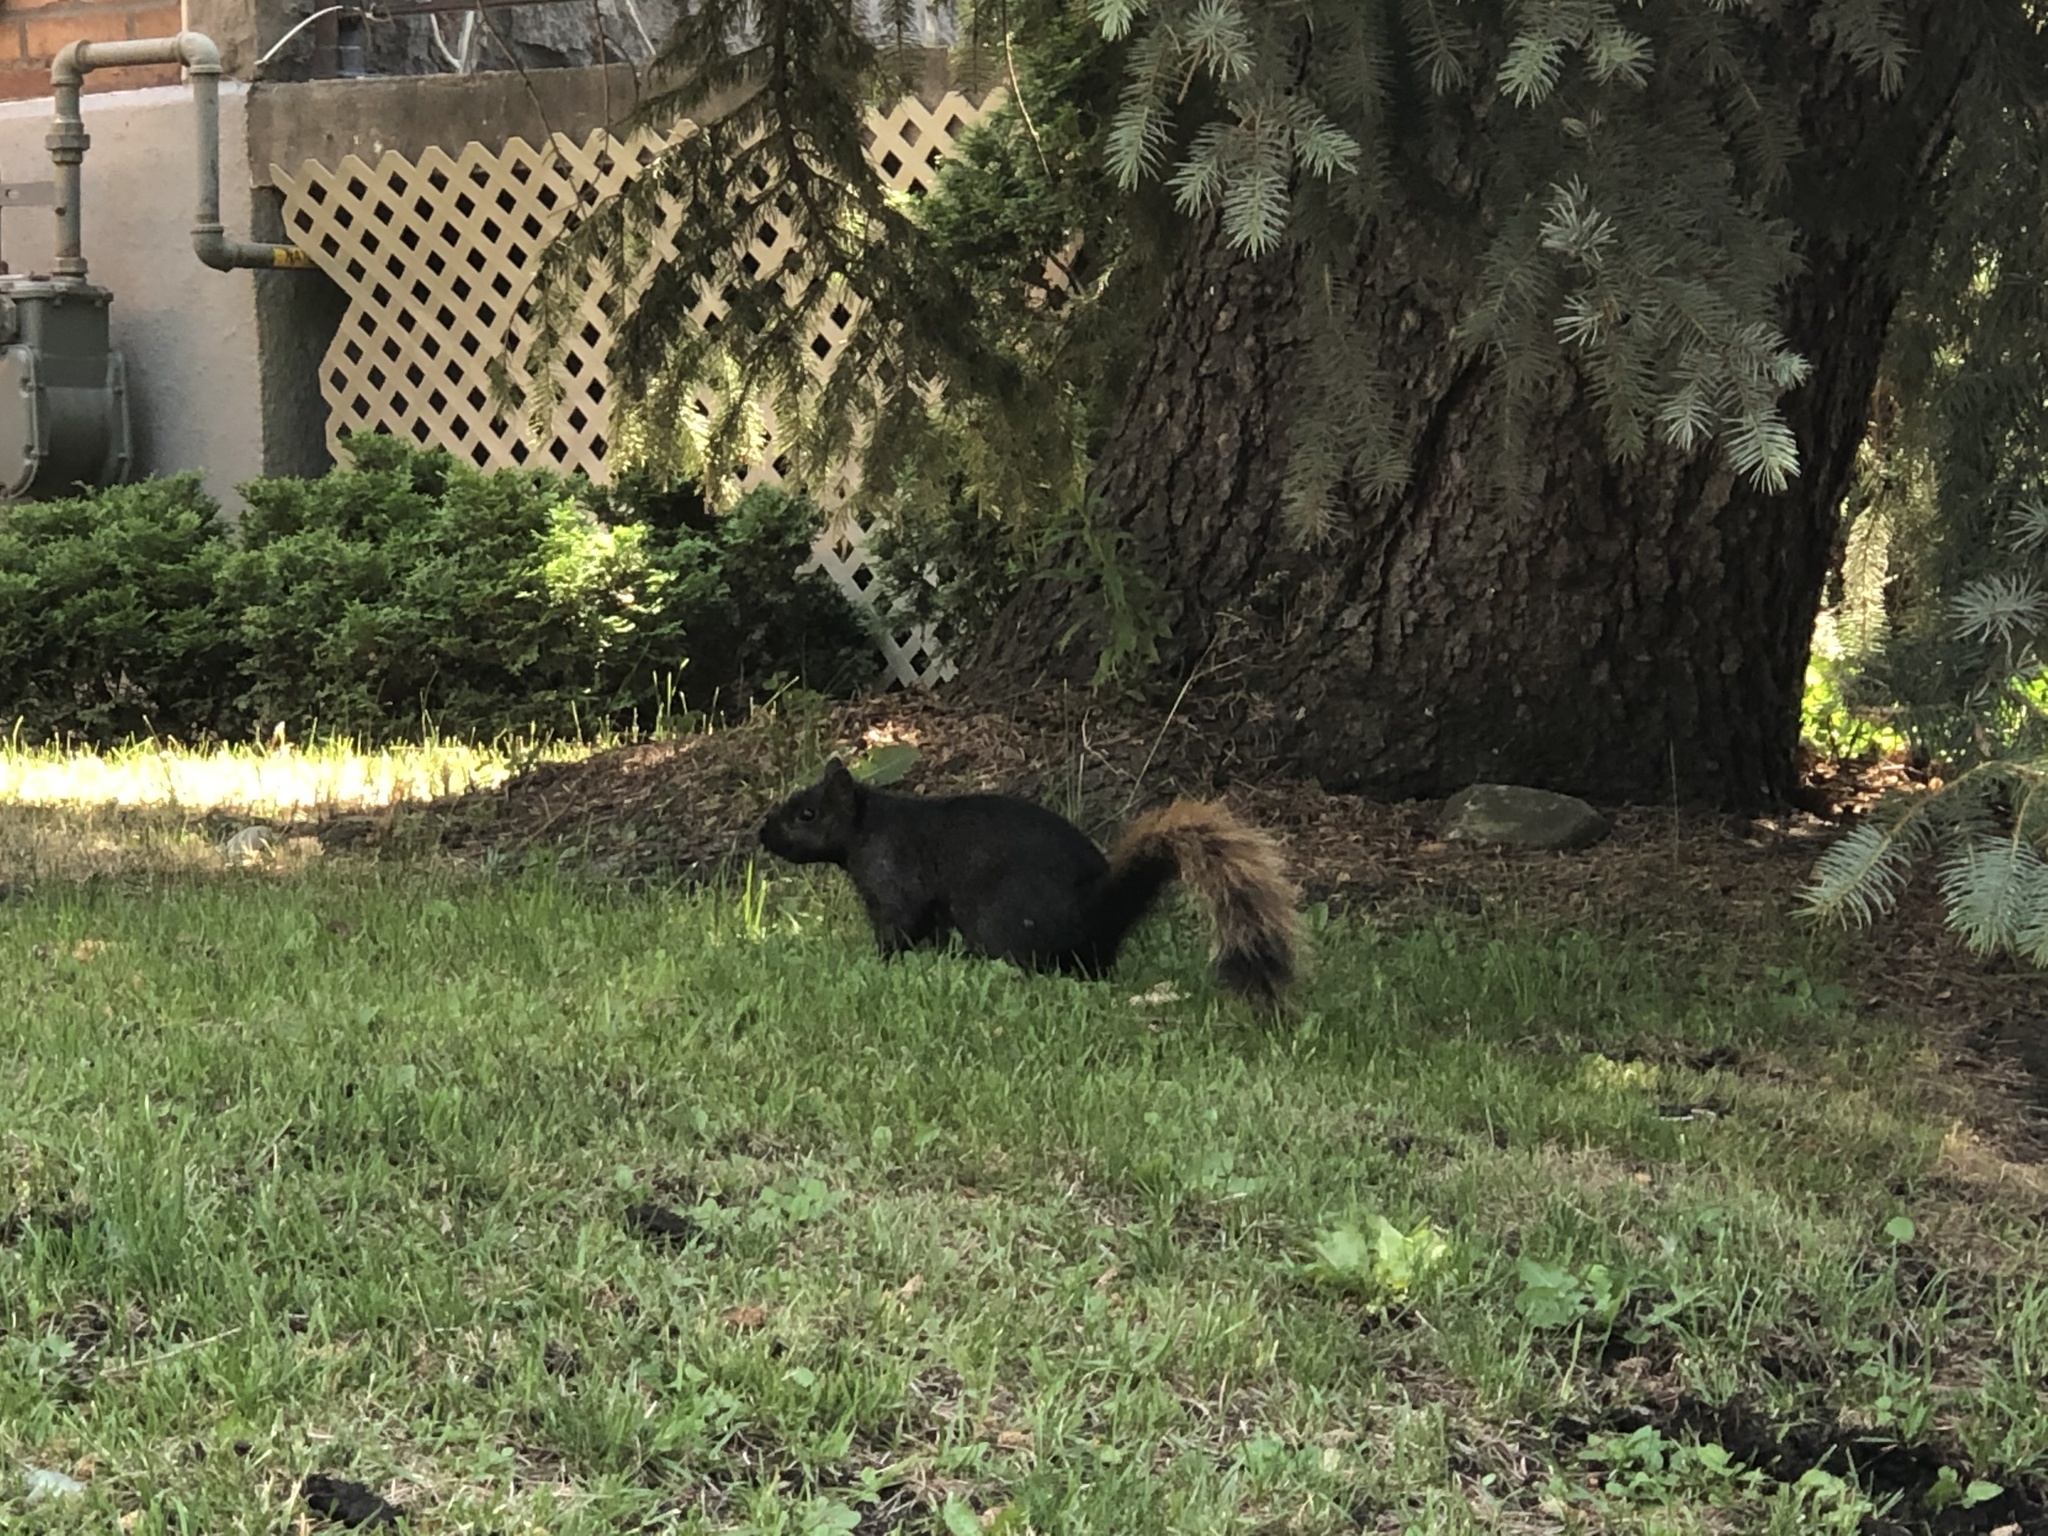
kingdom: Animalia
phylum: Chordata
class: Mammalia
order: Rodentia
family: Sciuridae
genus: Sciurus
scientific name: Sciurus carolinensis
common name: Eastern gray squirrel
